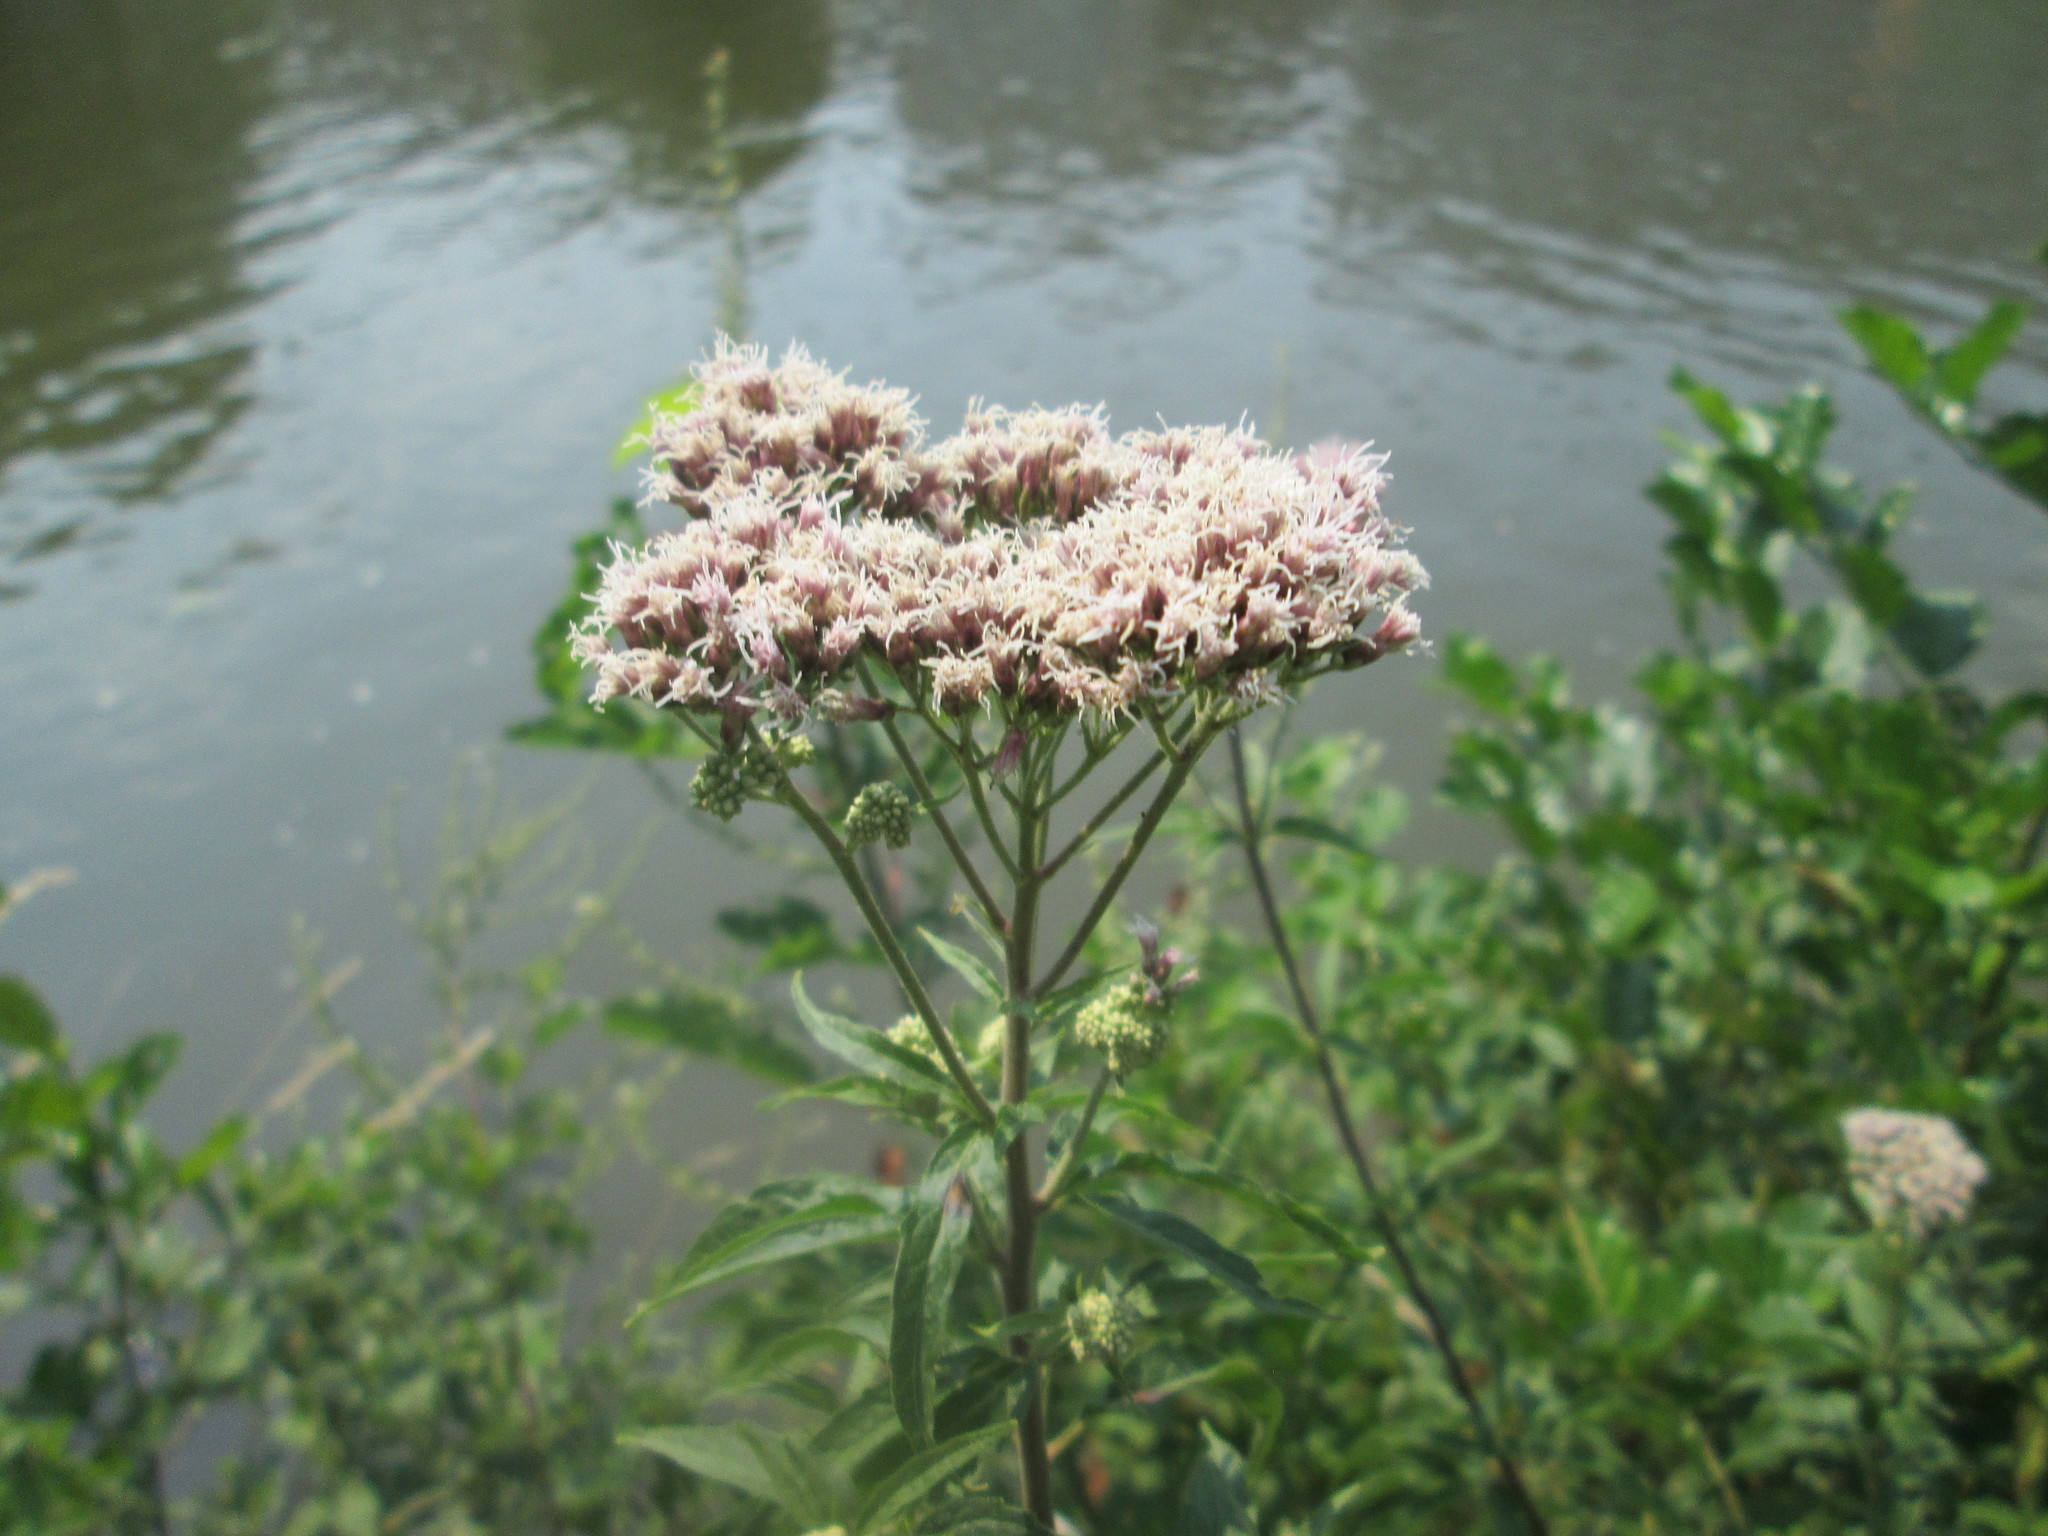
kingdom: Plantae
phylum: Tracheophyta
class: Magnoliopsida
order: Asterales
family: Asteraceae
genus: Eupatorium
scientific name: Eupatorium cannabinum
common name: Hemp-agrimony
